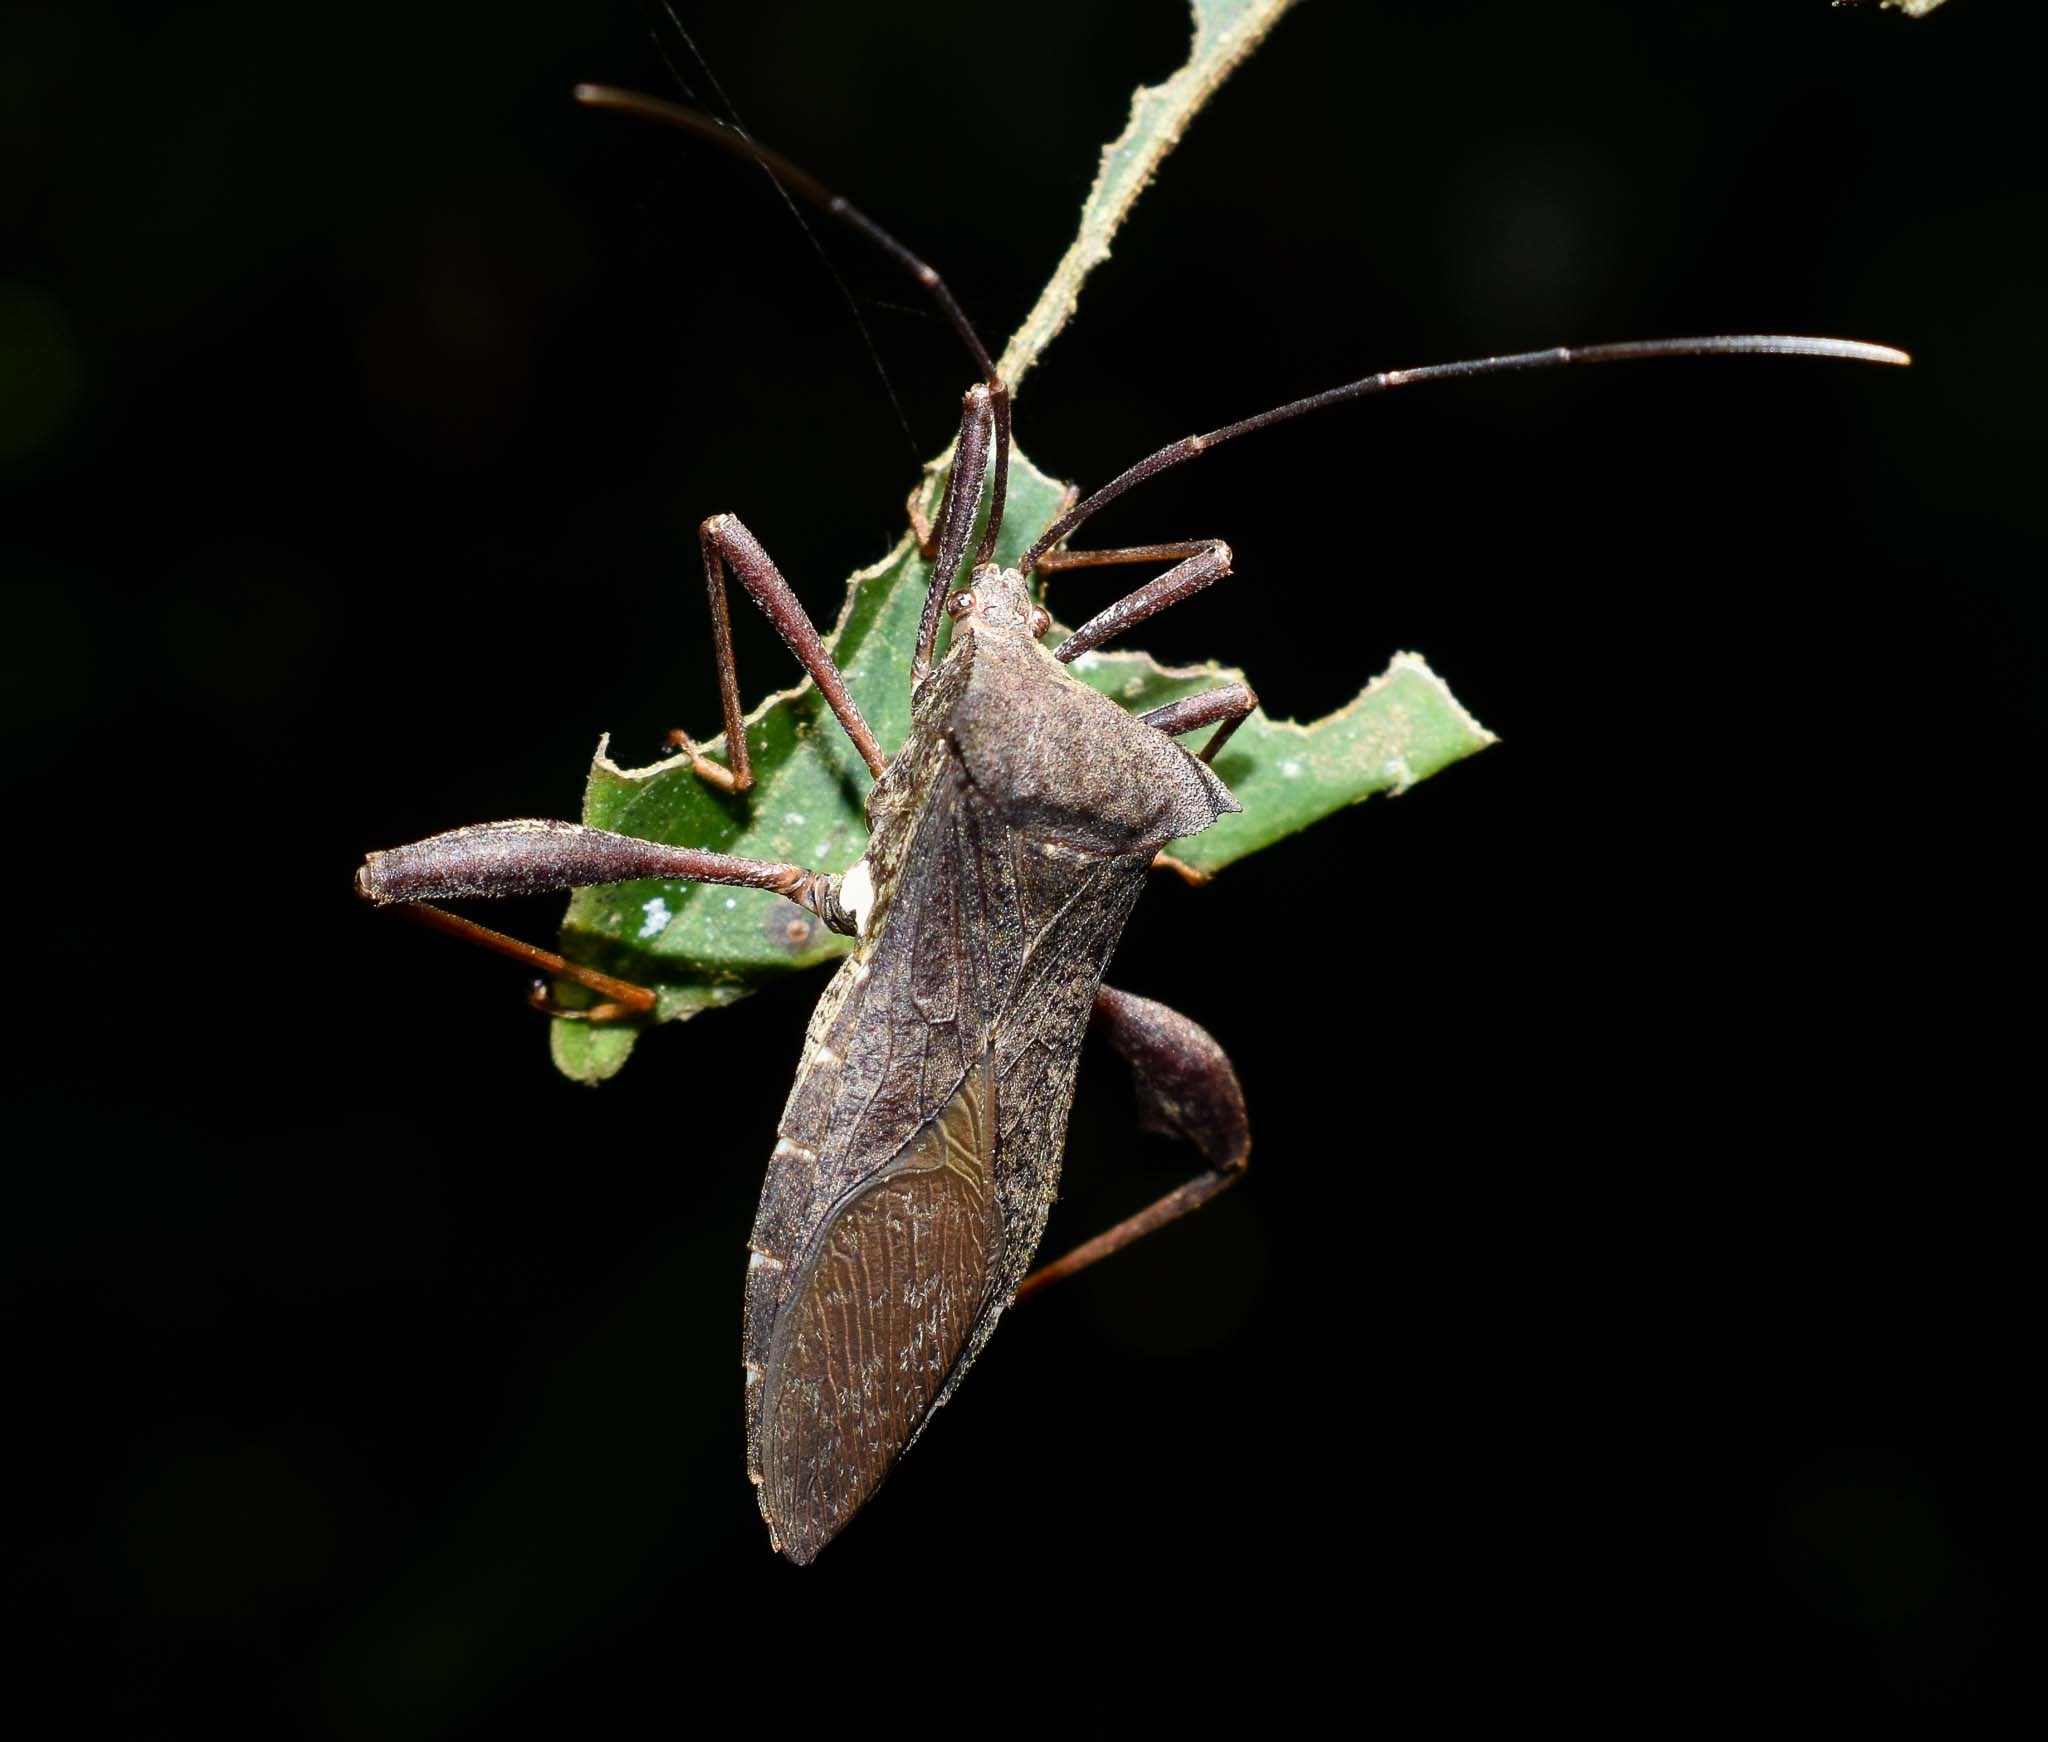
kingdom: Animalia
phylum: Arthropoda
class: Insecta
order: Hemiptera
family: Coreidae
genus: Mictis
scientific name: Mictis gallina
